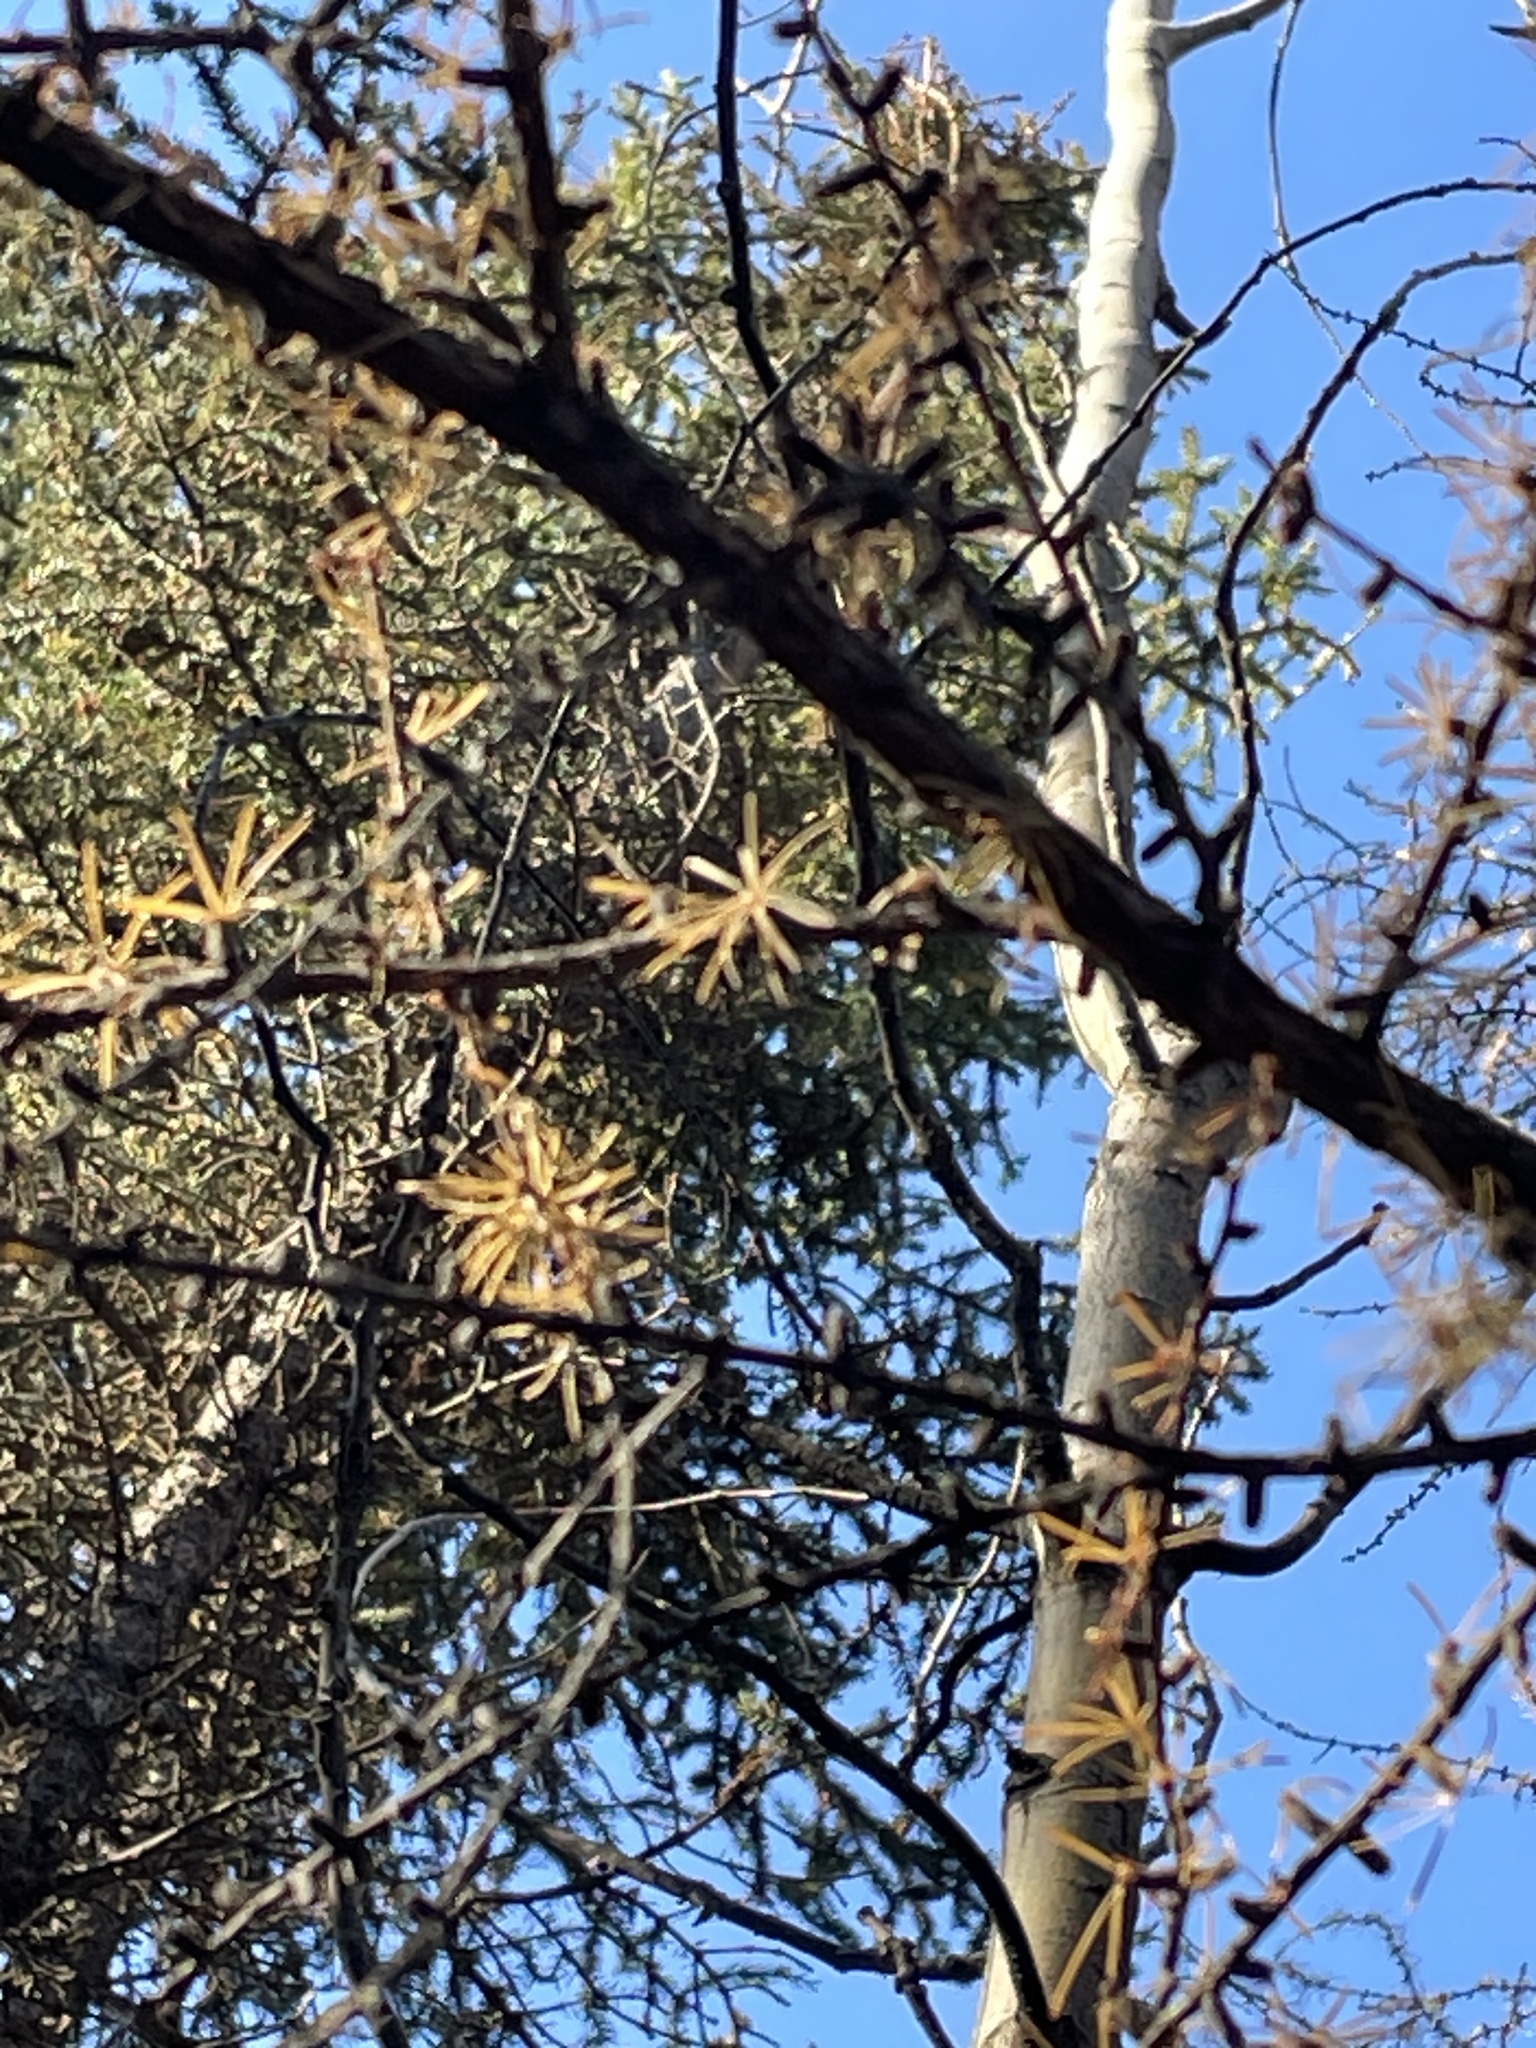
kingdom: Plantae
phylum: Tracheophyta
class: Pinopsida
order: Pinales
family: Pinaceae
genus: Larix
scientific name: Larix laricina
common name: American larch
